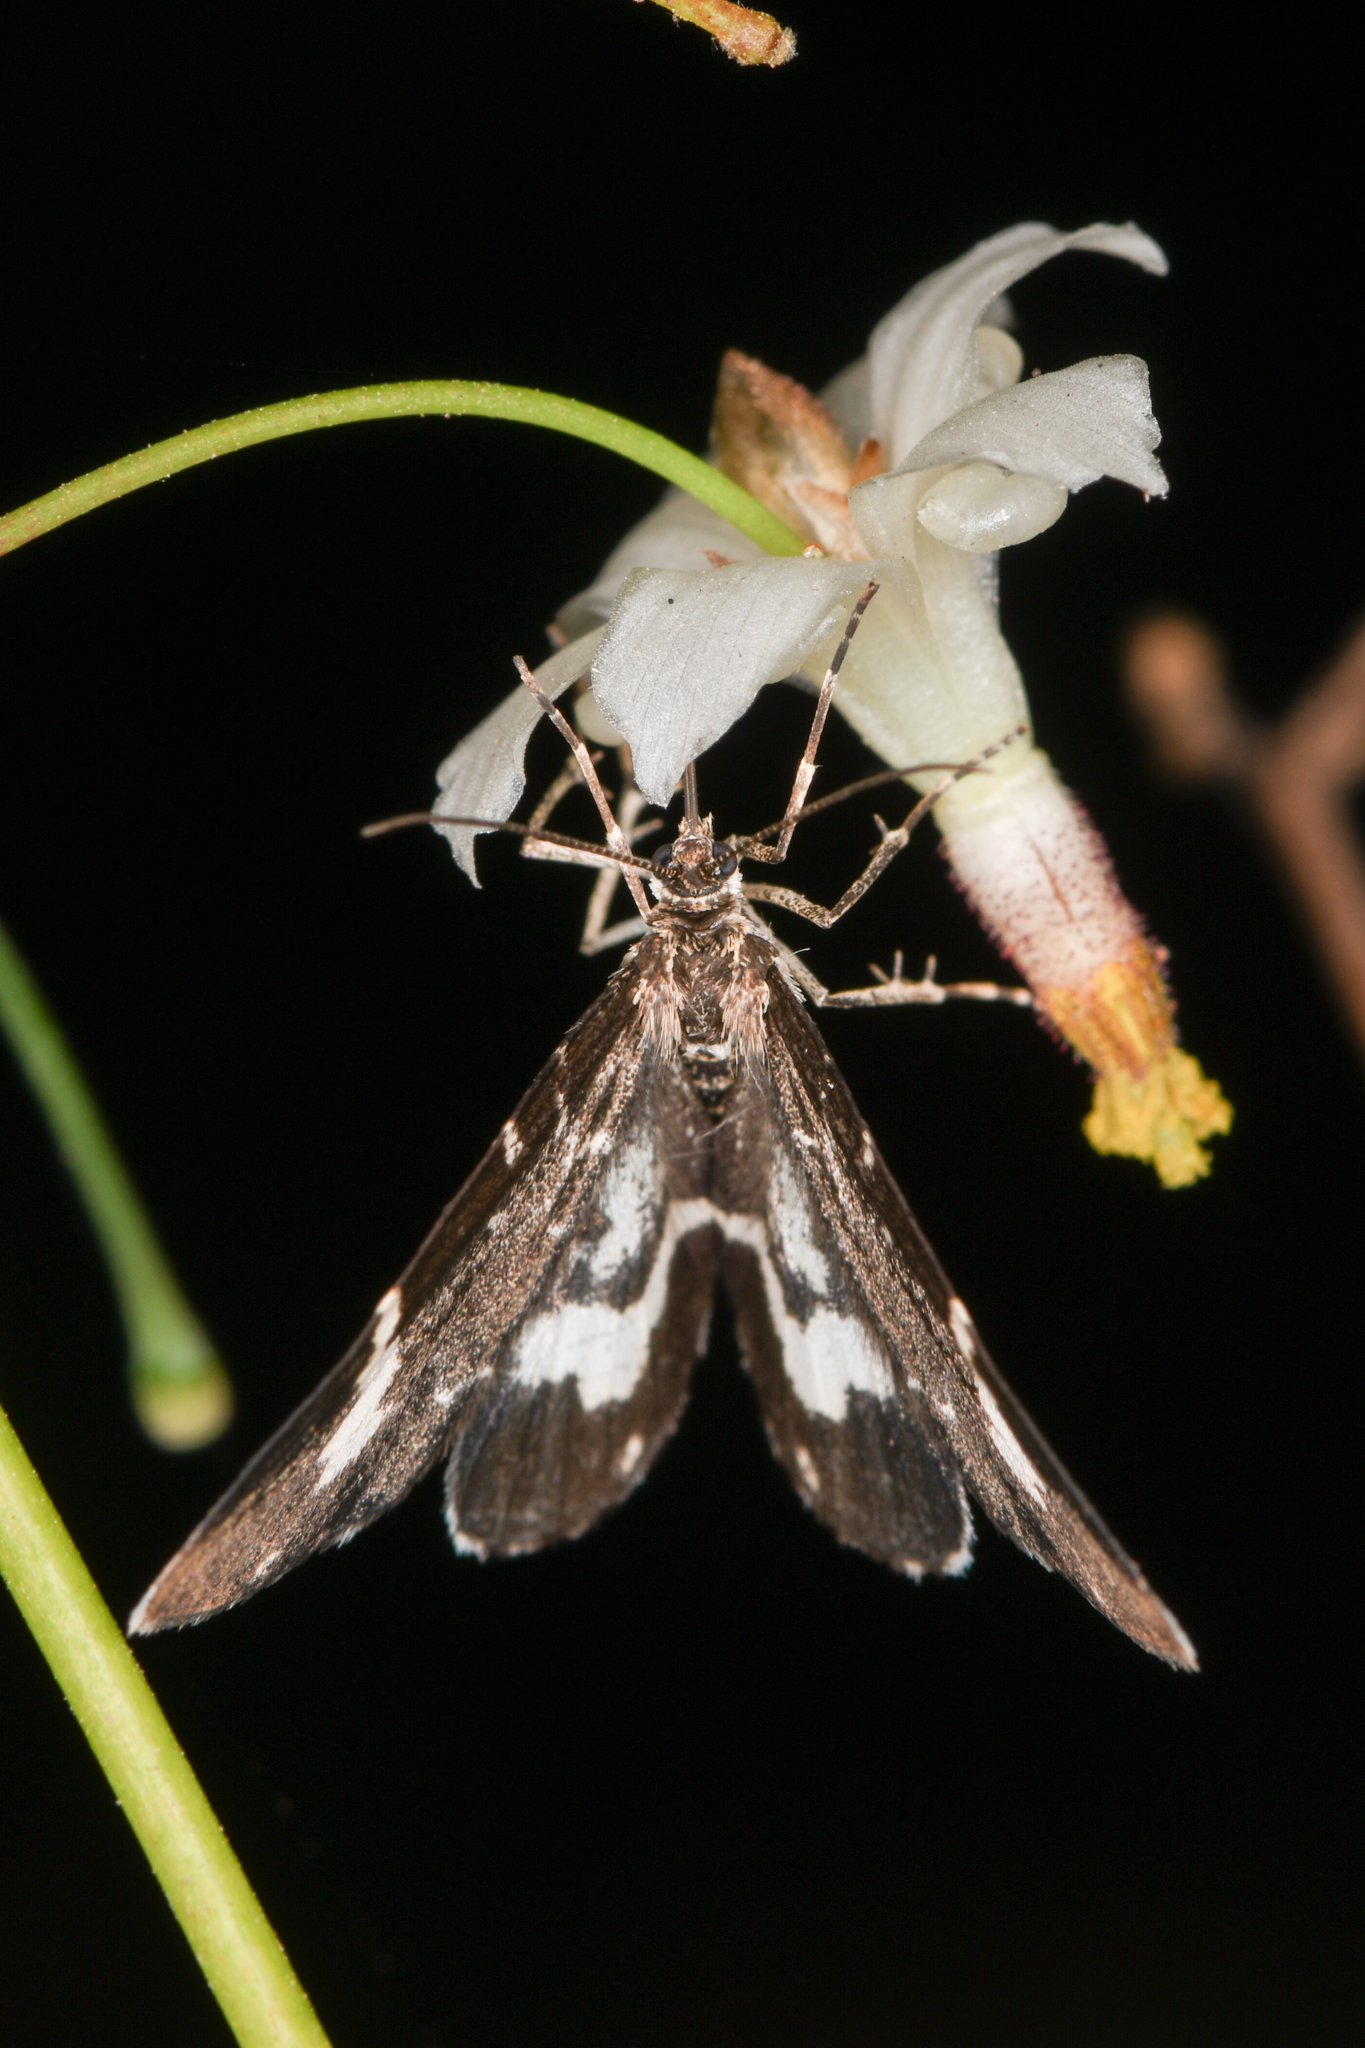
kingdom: Animalia
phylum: Arthropoda
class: Insecta
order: Lepidoptera
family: Geometridae
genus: Trichodezia
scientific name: Trichodezia californiata
